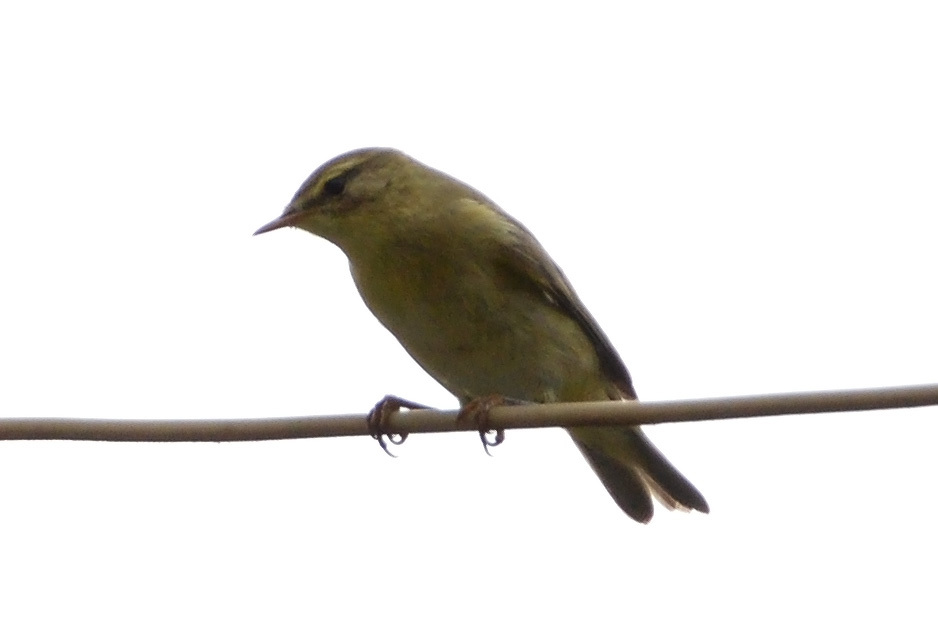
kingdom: Animalia
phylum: Chordata
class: Aves
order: Passeriformes
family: Phylloscopidae
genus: Phylloscopus
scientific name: Phylloscopus trochilus
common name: Willow warbler
